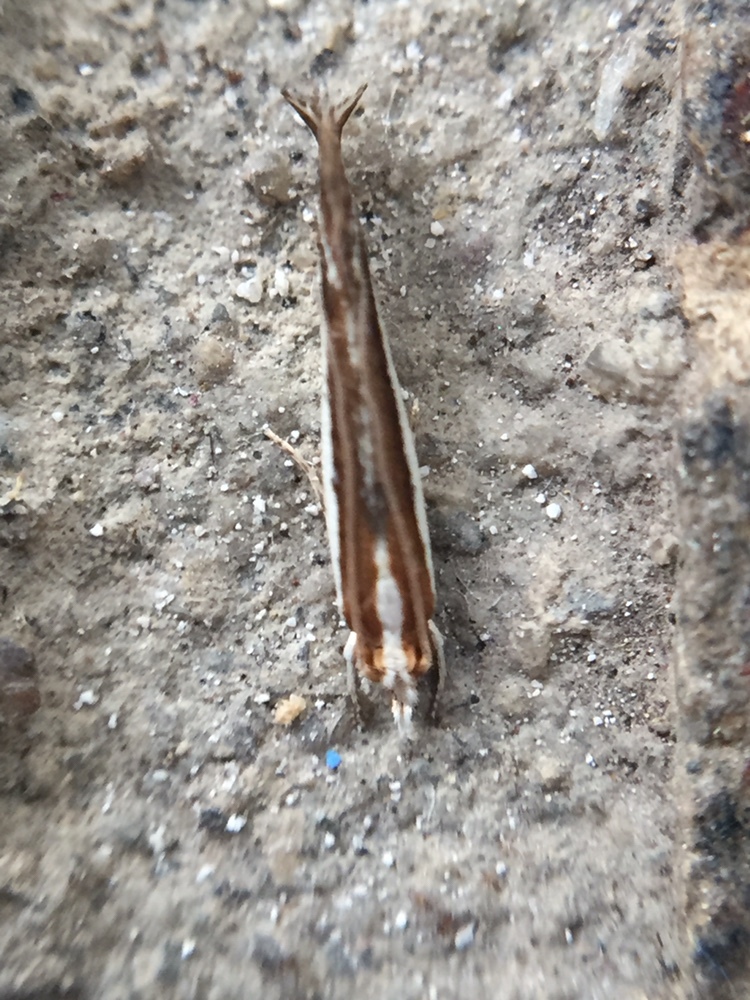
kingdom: Animalia
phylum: Arthropoda
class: Insecta
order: Lepidoptera
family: Tineidae
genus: Erechthias
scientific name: Erechthias chionodira
